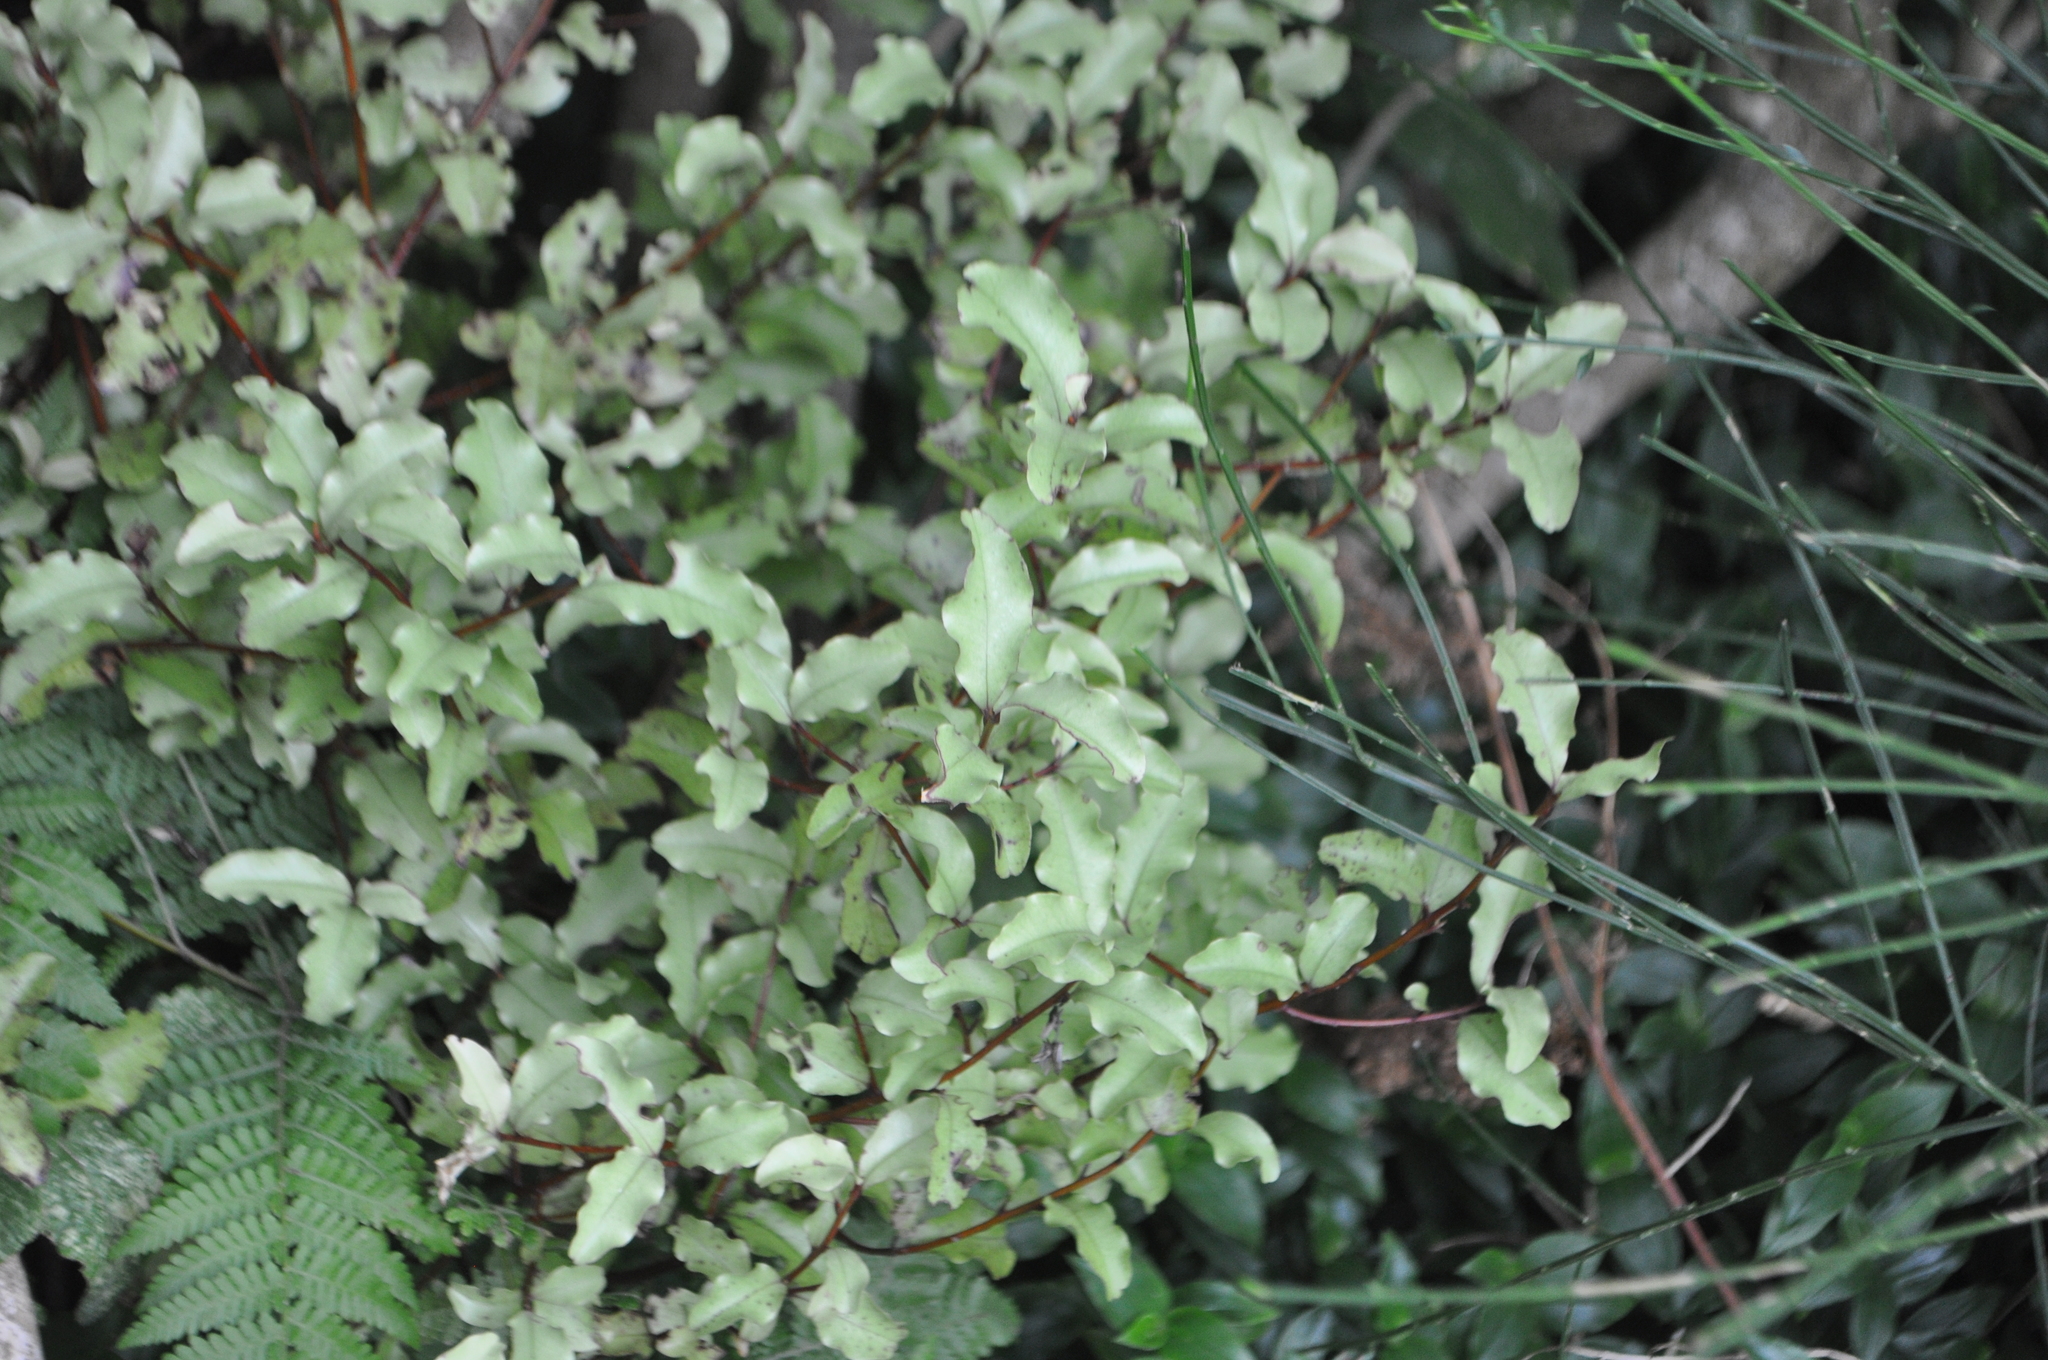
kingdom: Plantae
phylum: Tracheophyta
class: Magnoliopsida
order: Ericales
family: Primulaceae
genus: Myrsine
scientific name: Myrsine australis
